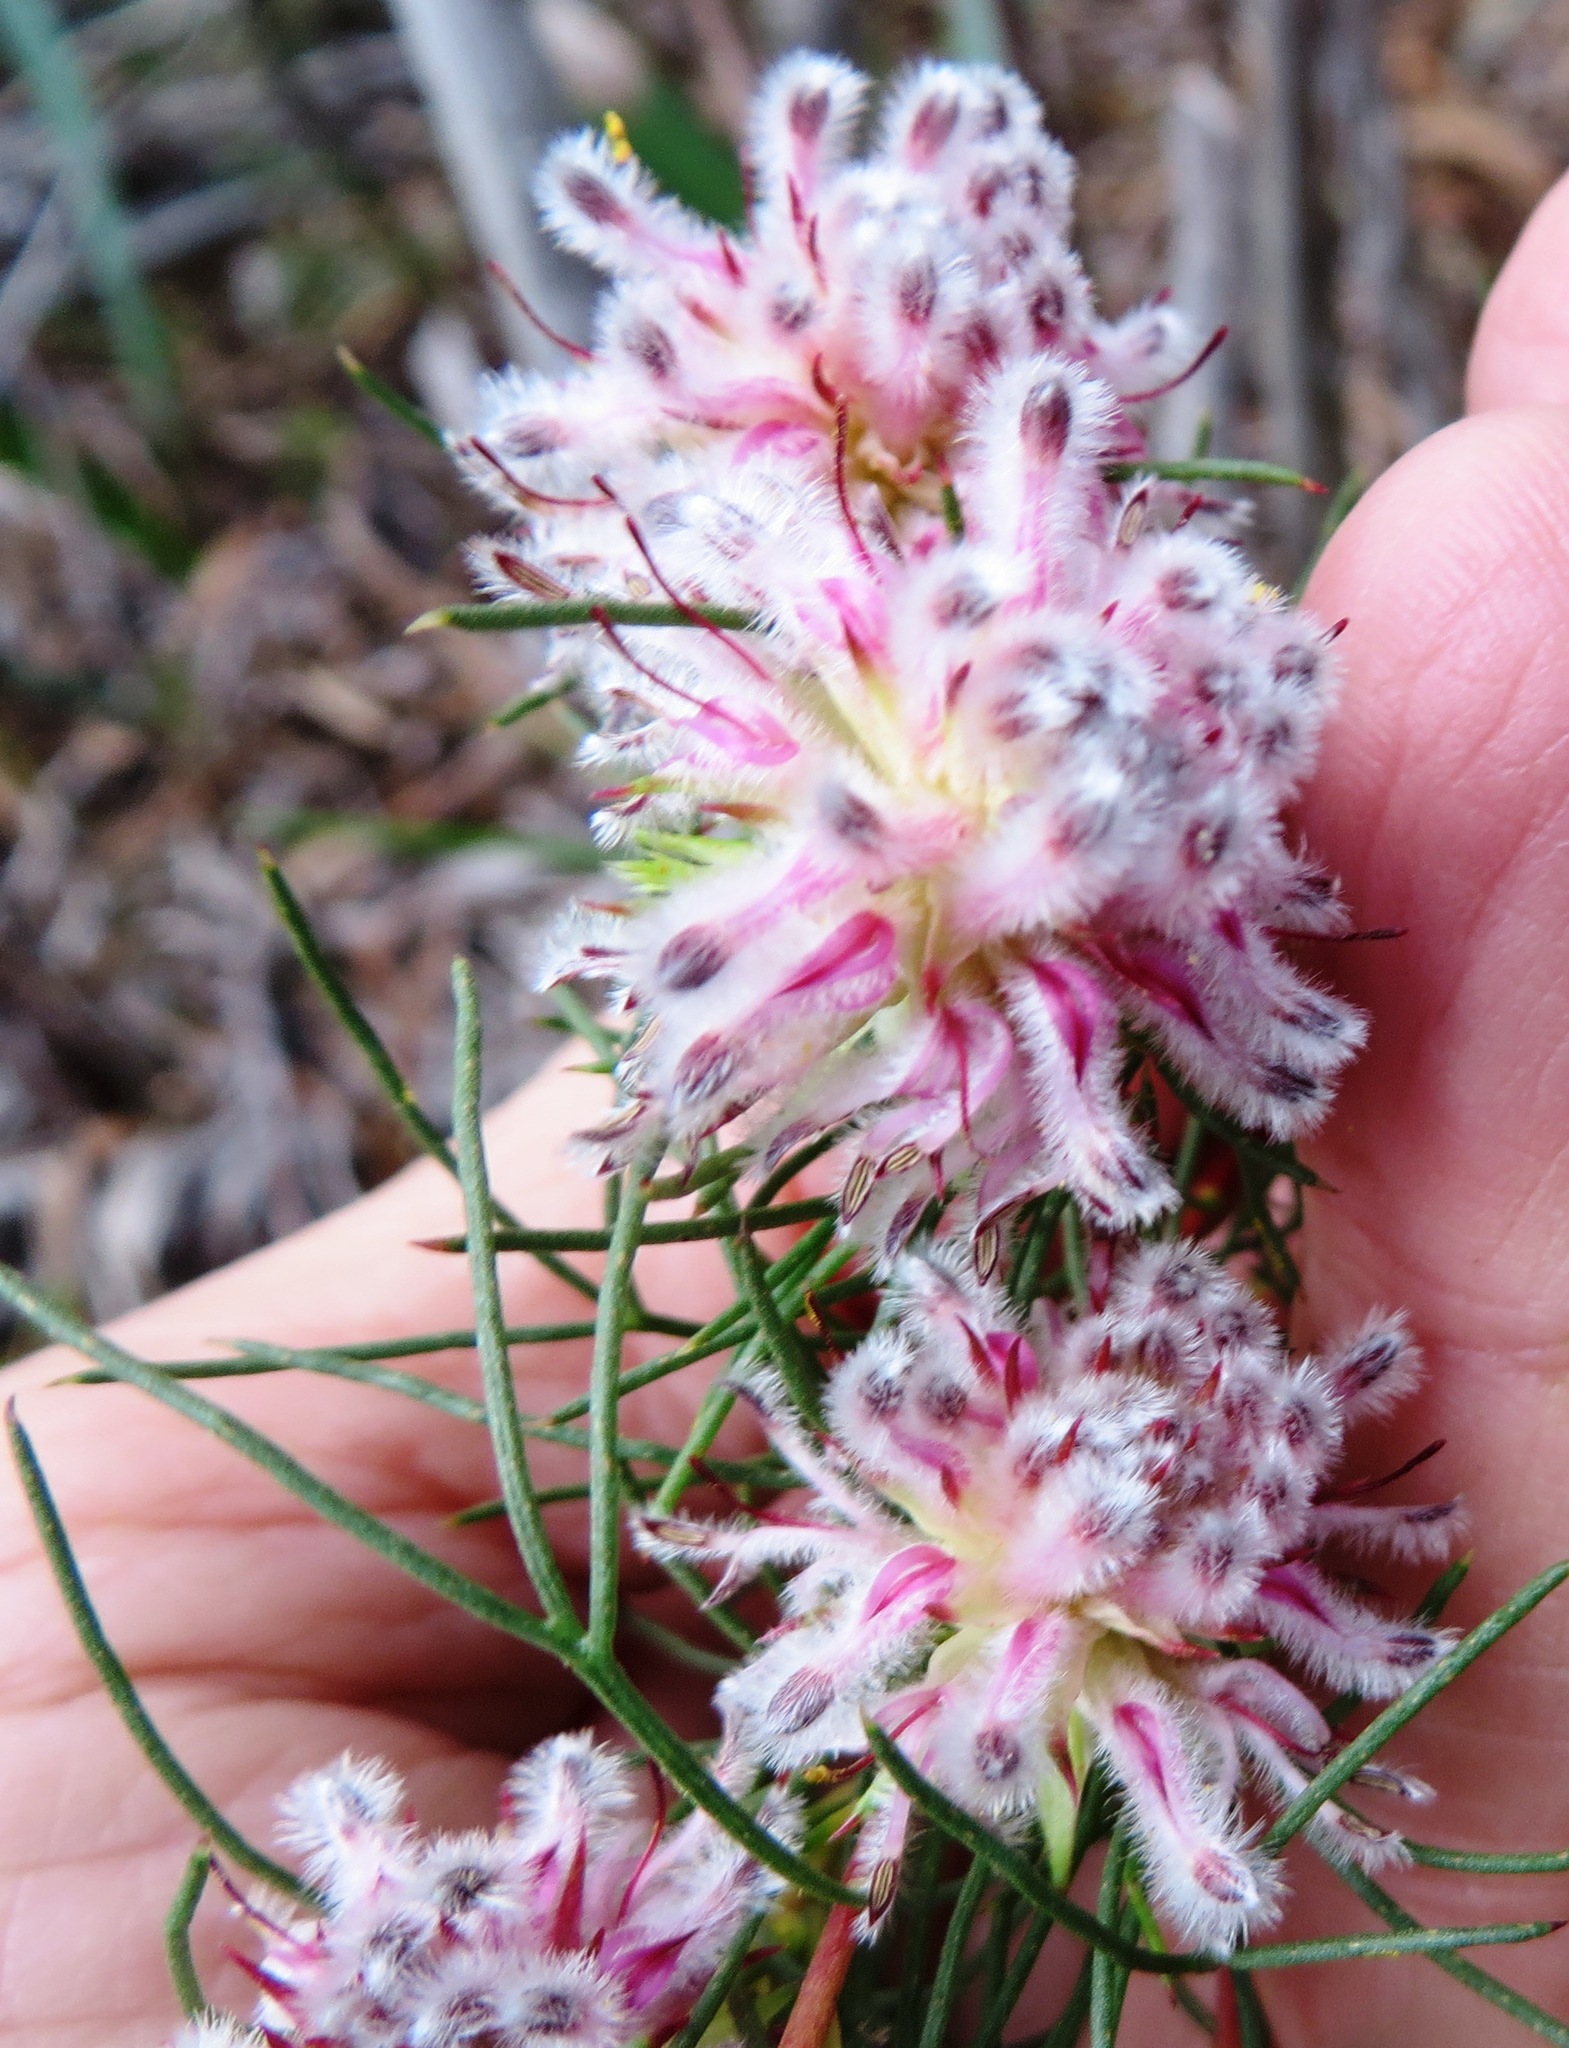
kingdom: Plantae
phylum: Tracheophyta
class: Magnoliopsida
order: Proteales
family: Proteaceae
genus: Serruria
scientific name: Serruria nervosa
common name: Fluted spiderhead
